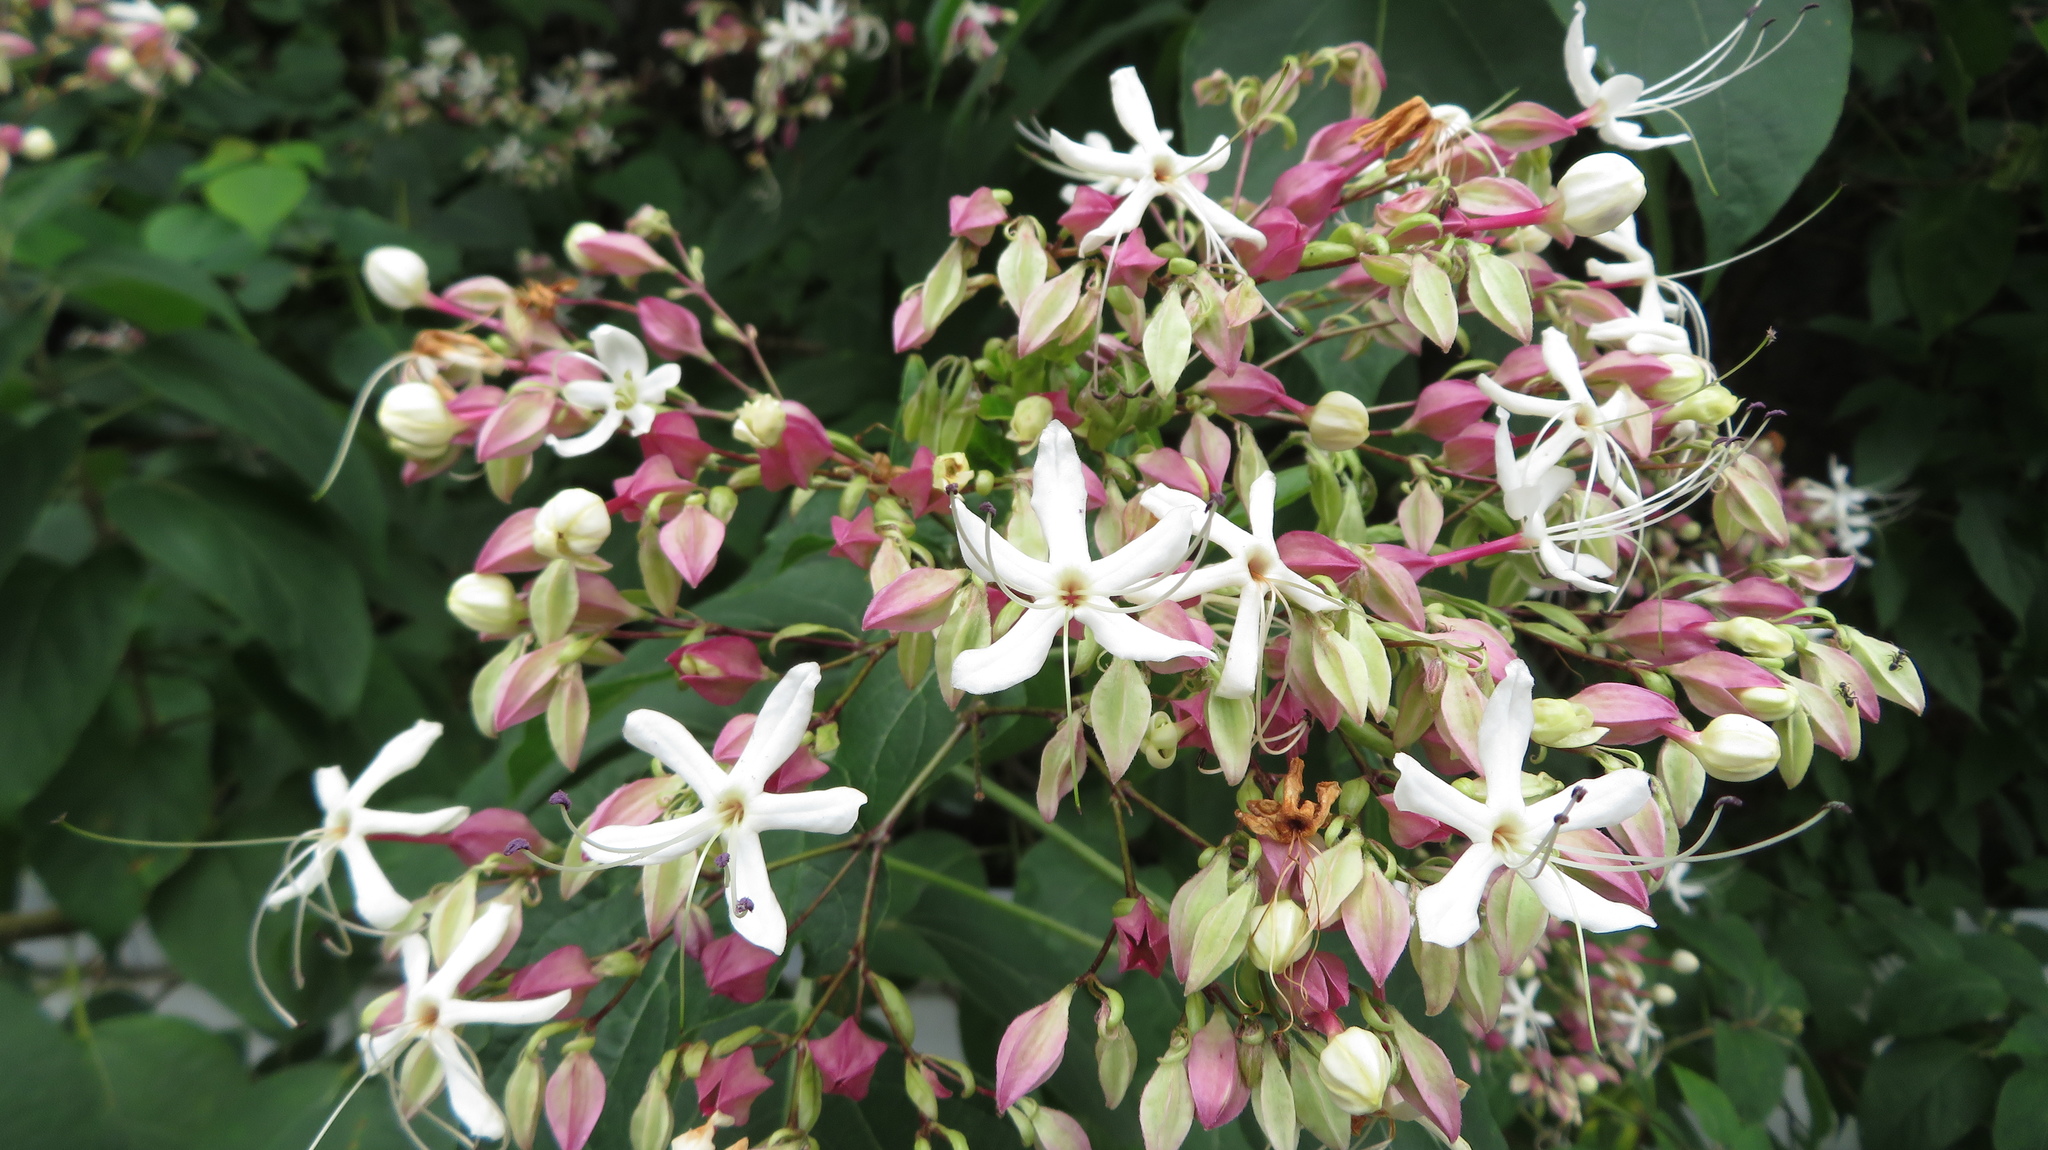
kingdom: Plantae
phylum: Tracheophyta
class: Magnoliopsida
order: Lamiales
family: Lamiaceae
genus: Clerodendrum
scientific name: Clerodendrum trichotomum
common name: Harlequin glorybower
